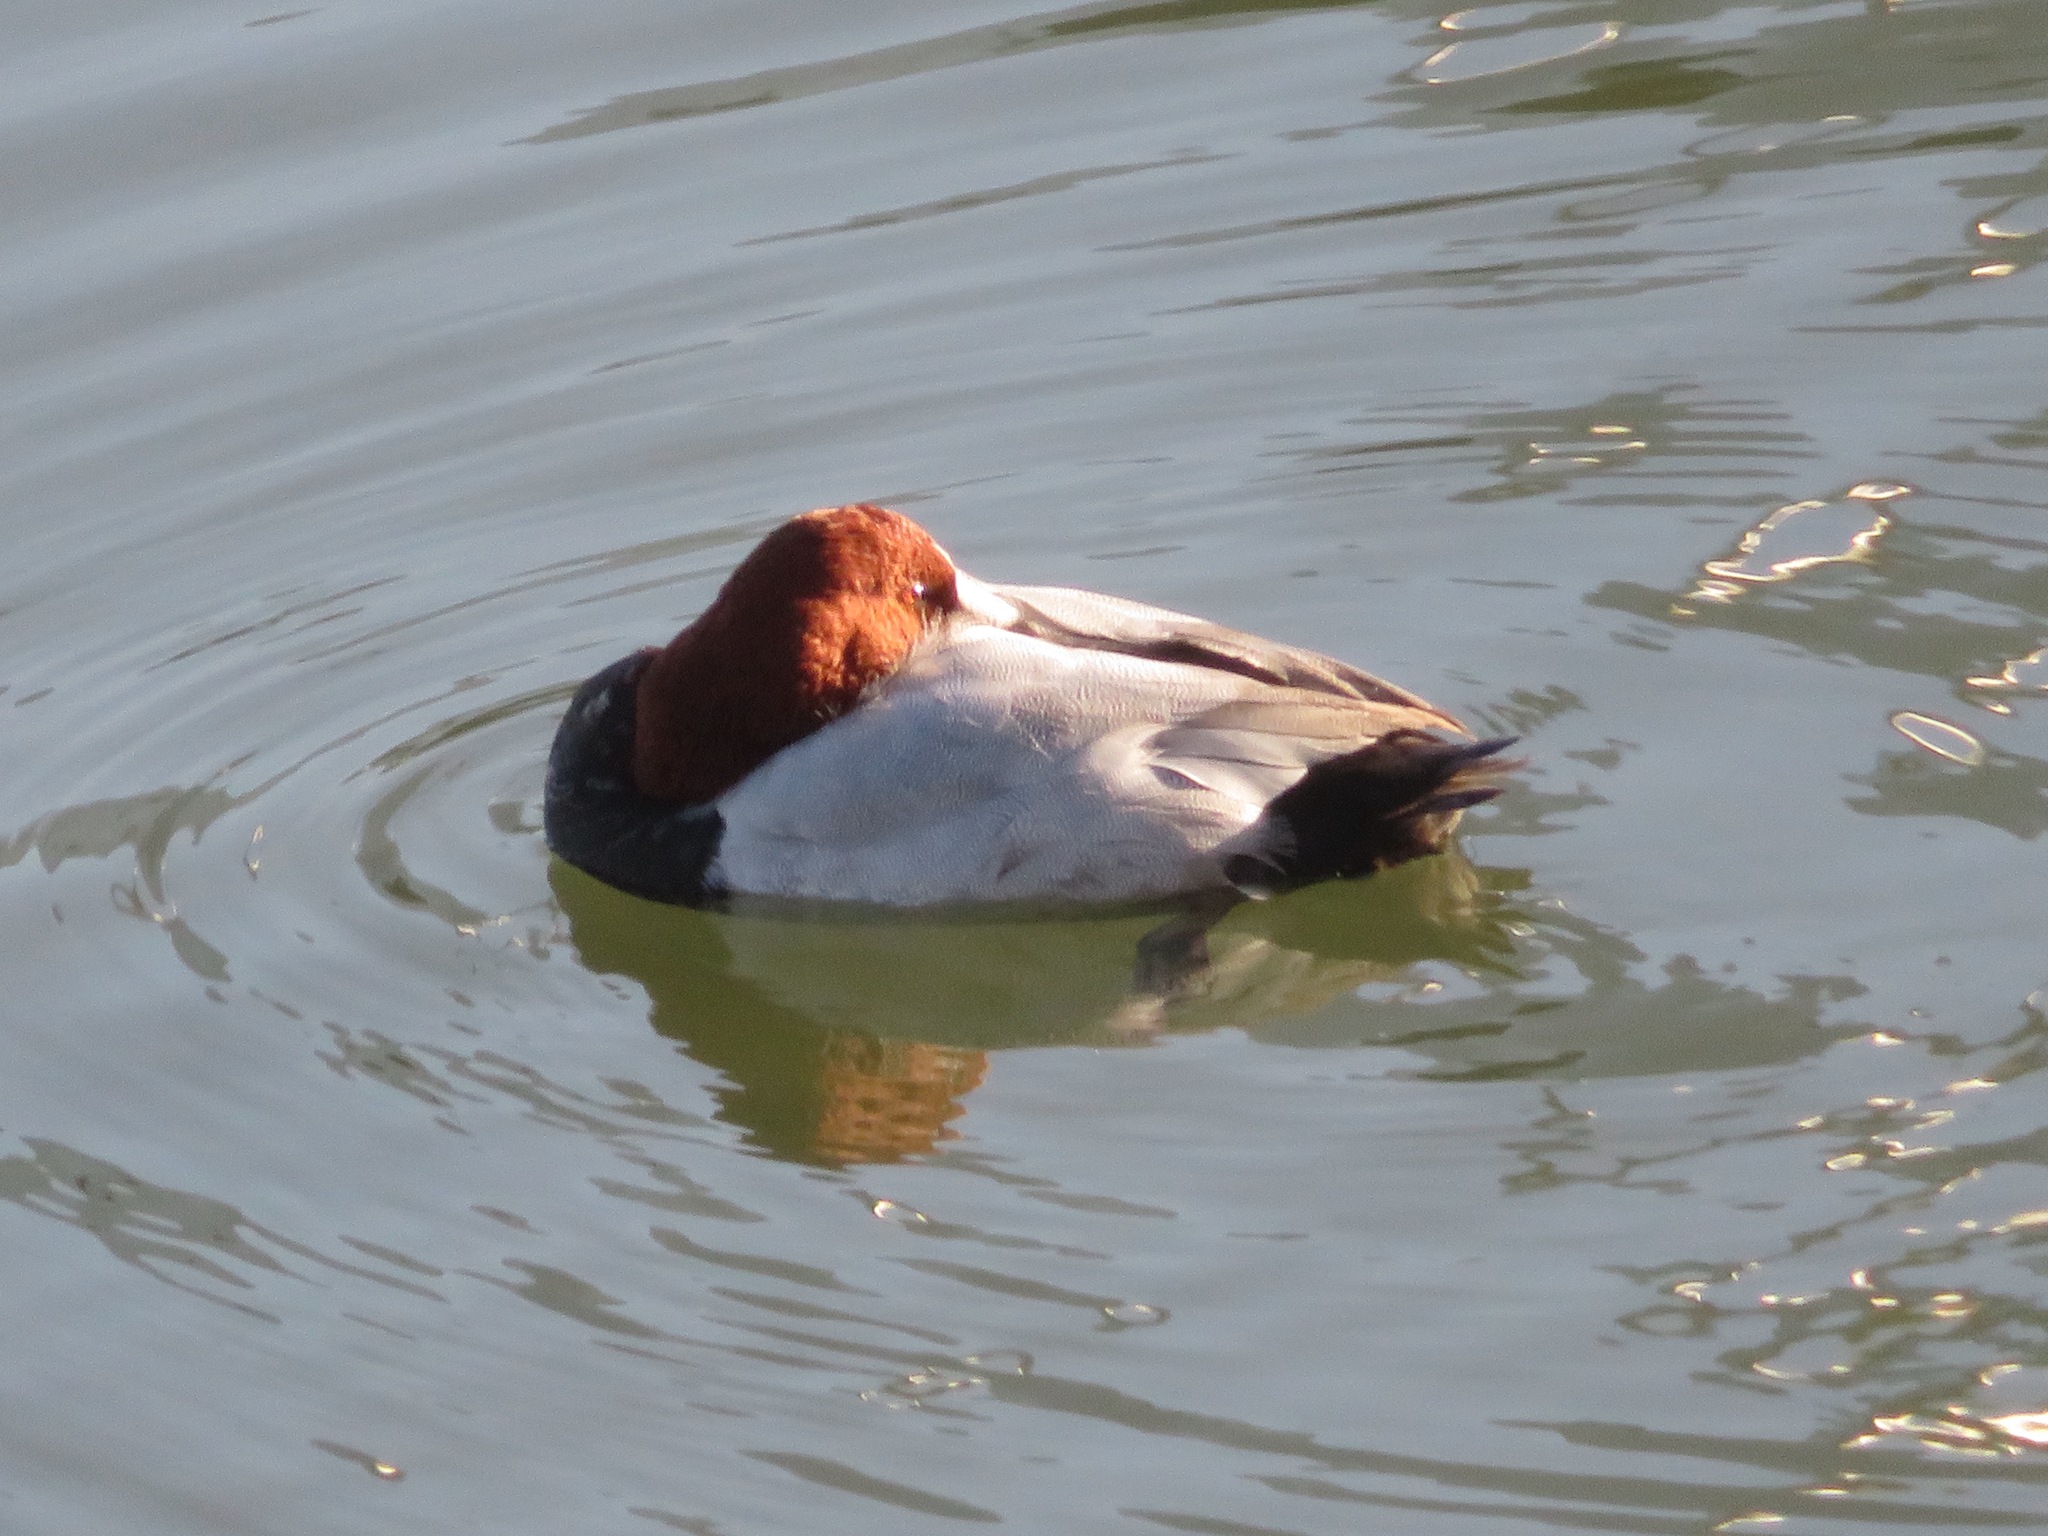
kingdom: Animalia
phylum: Chordata
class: Aves
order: Anseriformes
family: Anatidae
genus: Aythya
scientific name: Aythya ferina
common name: Common pochard
